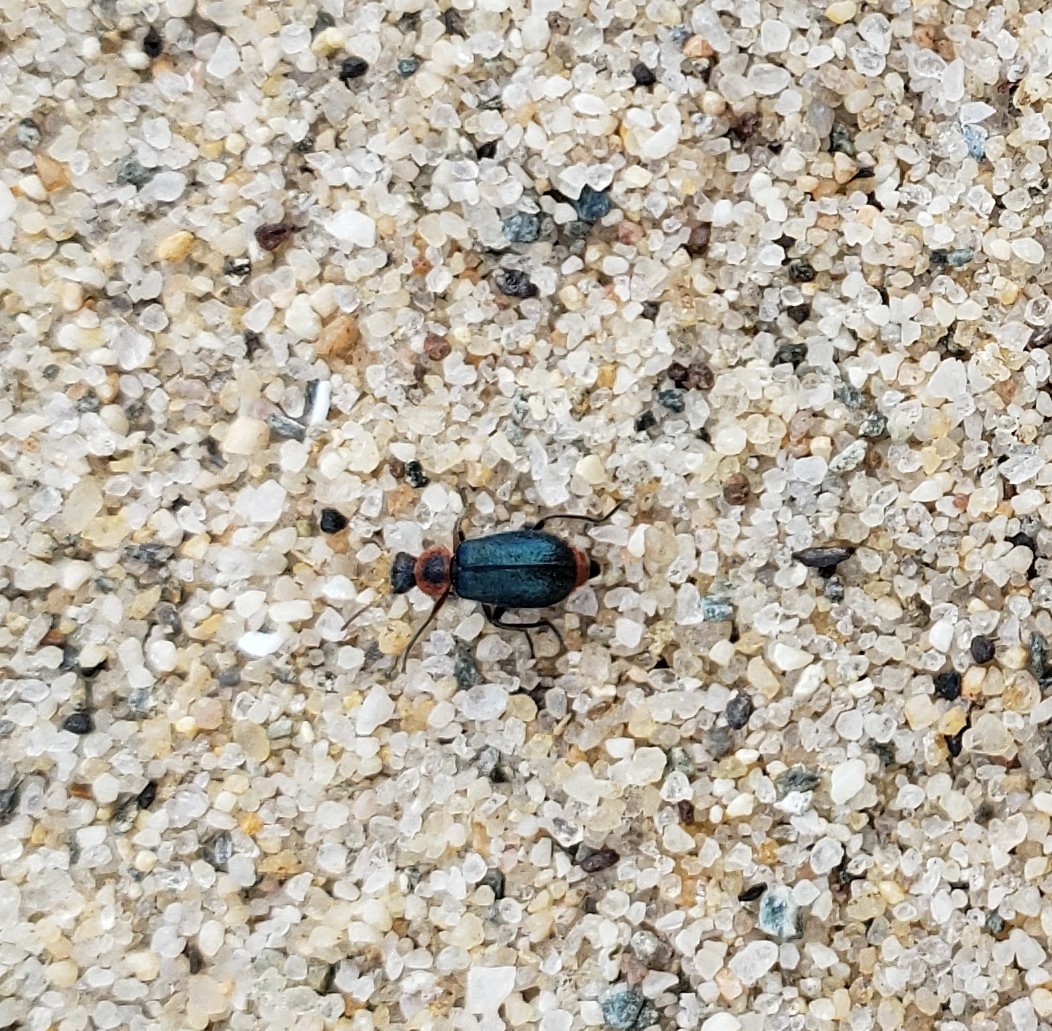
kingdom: Animalia
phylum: Arthropoda
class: Insecta
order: Coleoptera
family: Melyridae
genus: Collops
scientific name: Collops nigriceps
